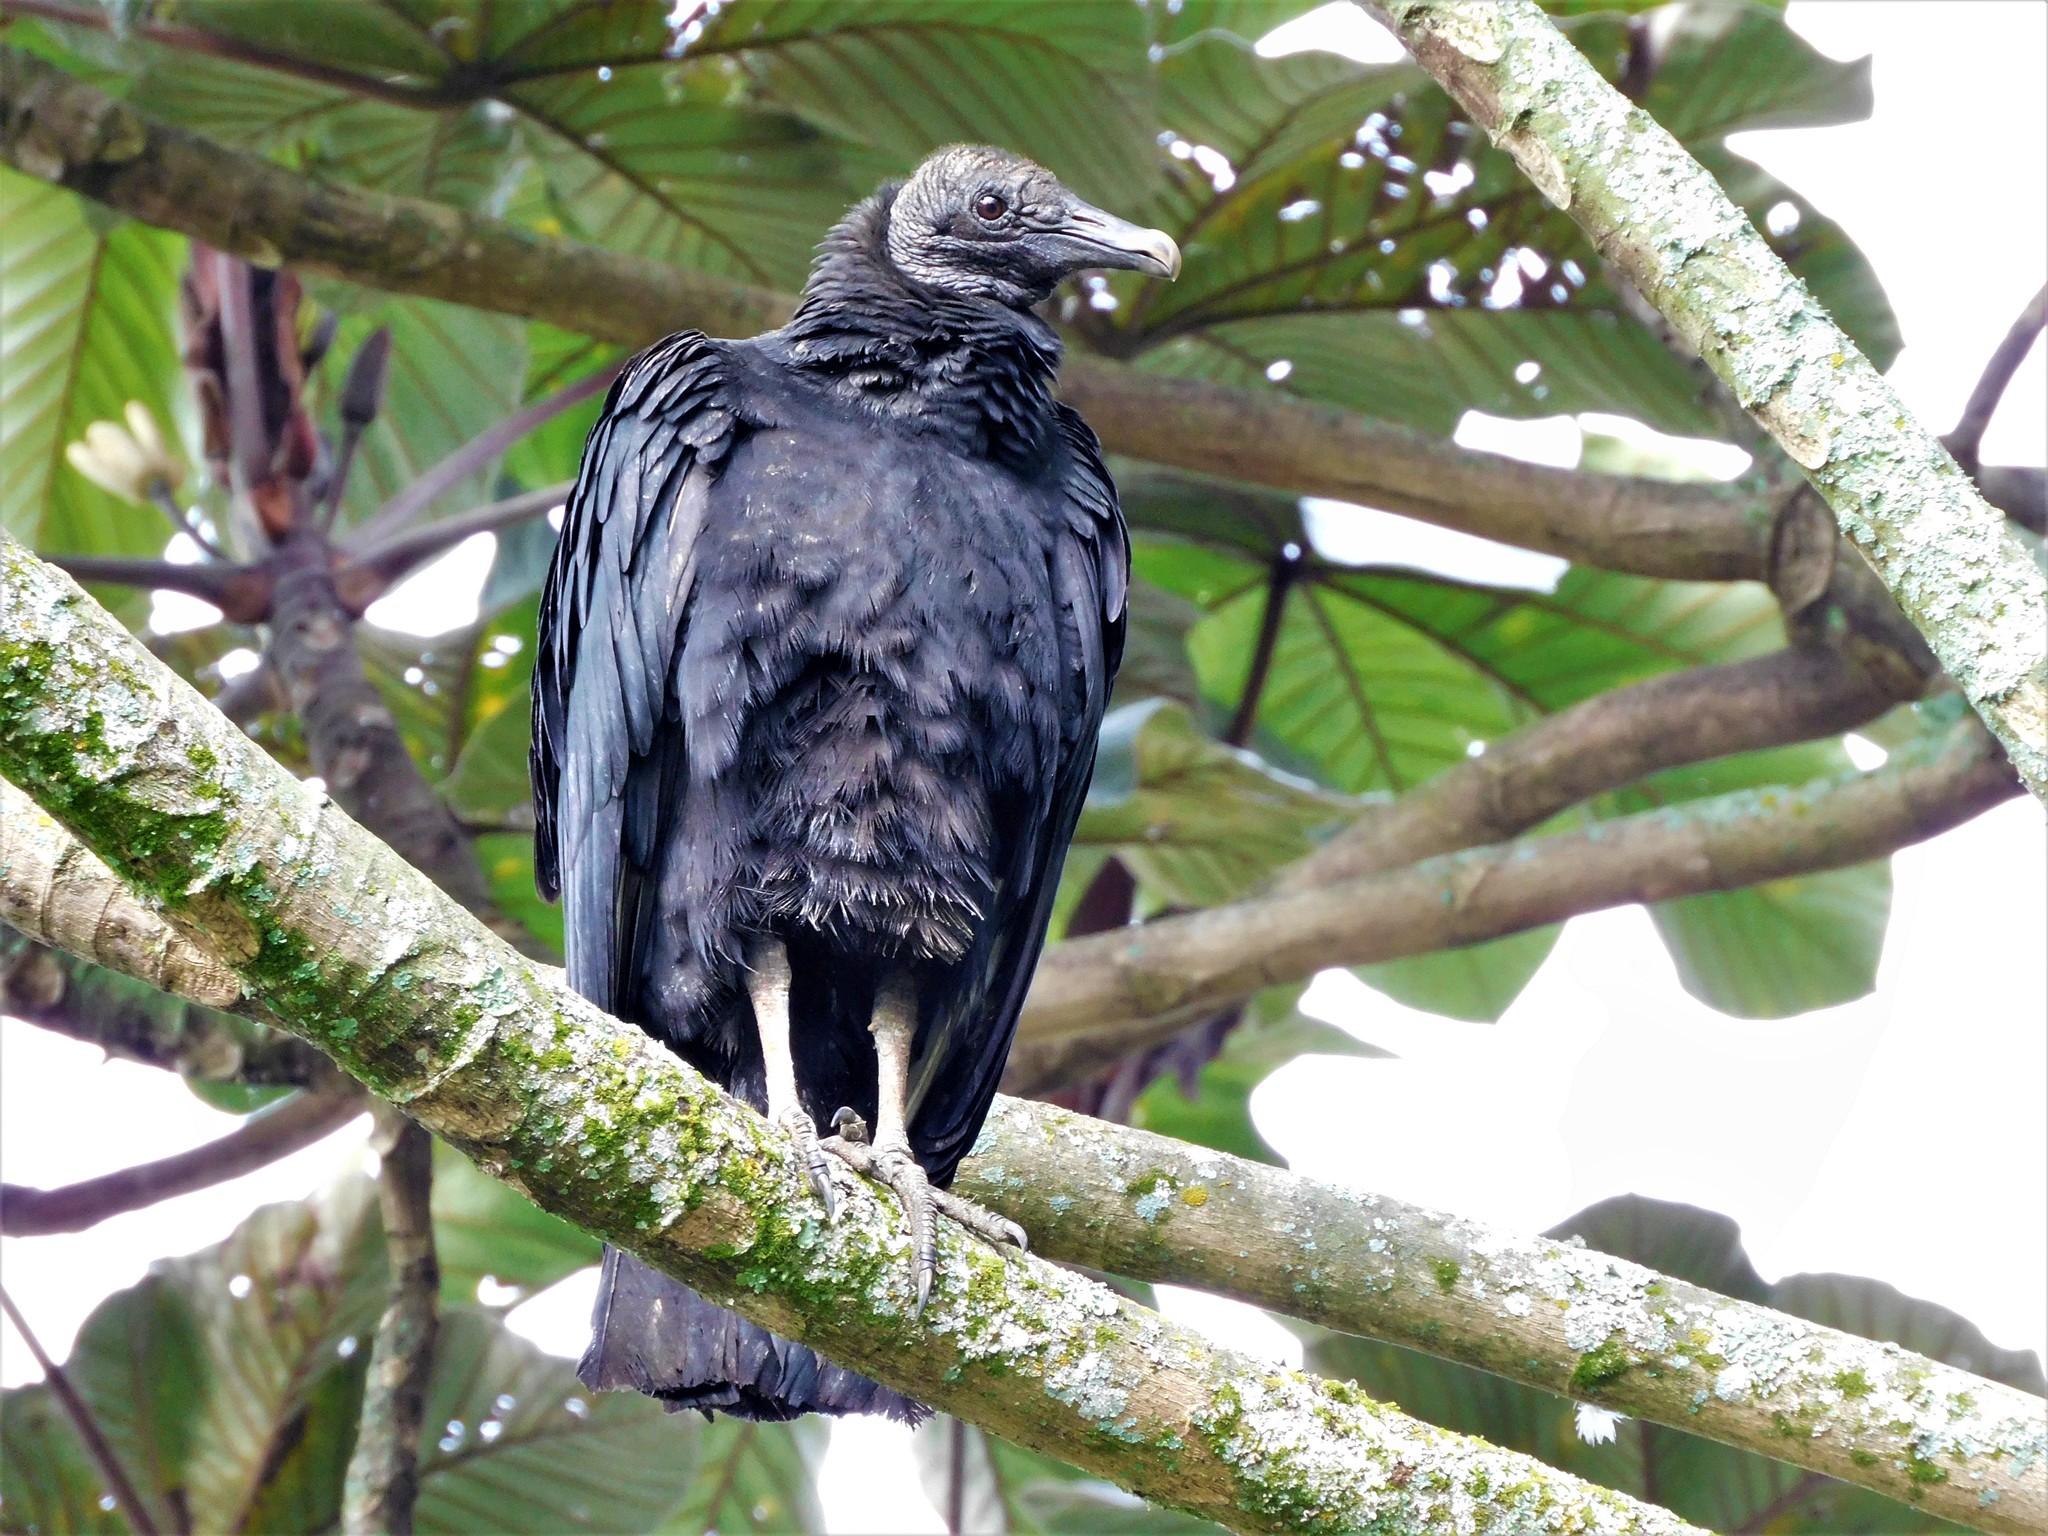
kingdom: Animalia
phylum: Chordata
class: Aves
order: Accipitriformes
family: Cathartidae
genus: Coragyps
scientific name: Coragyps atratus
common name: Black vulture
